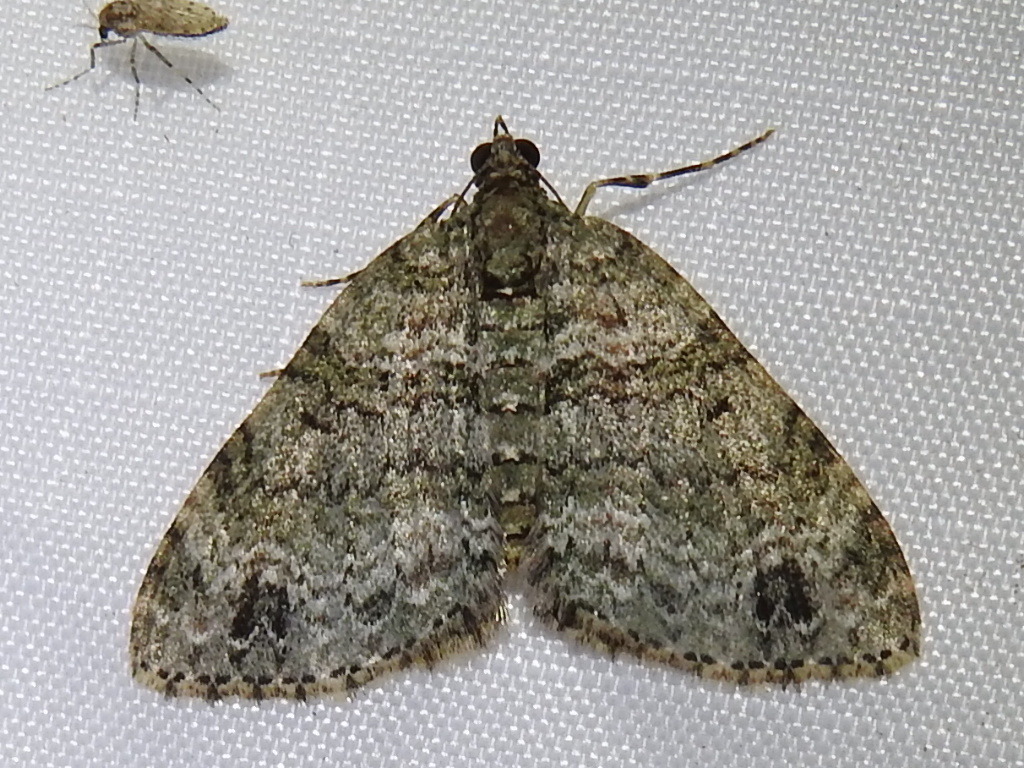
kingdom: Animalia
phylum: Arthropoda
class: Insecta
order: Lepidoptera
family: Geometridae
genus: Hammaptera
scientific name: Hammaptera parinotata
